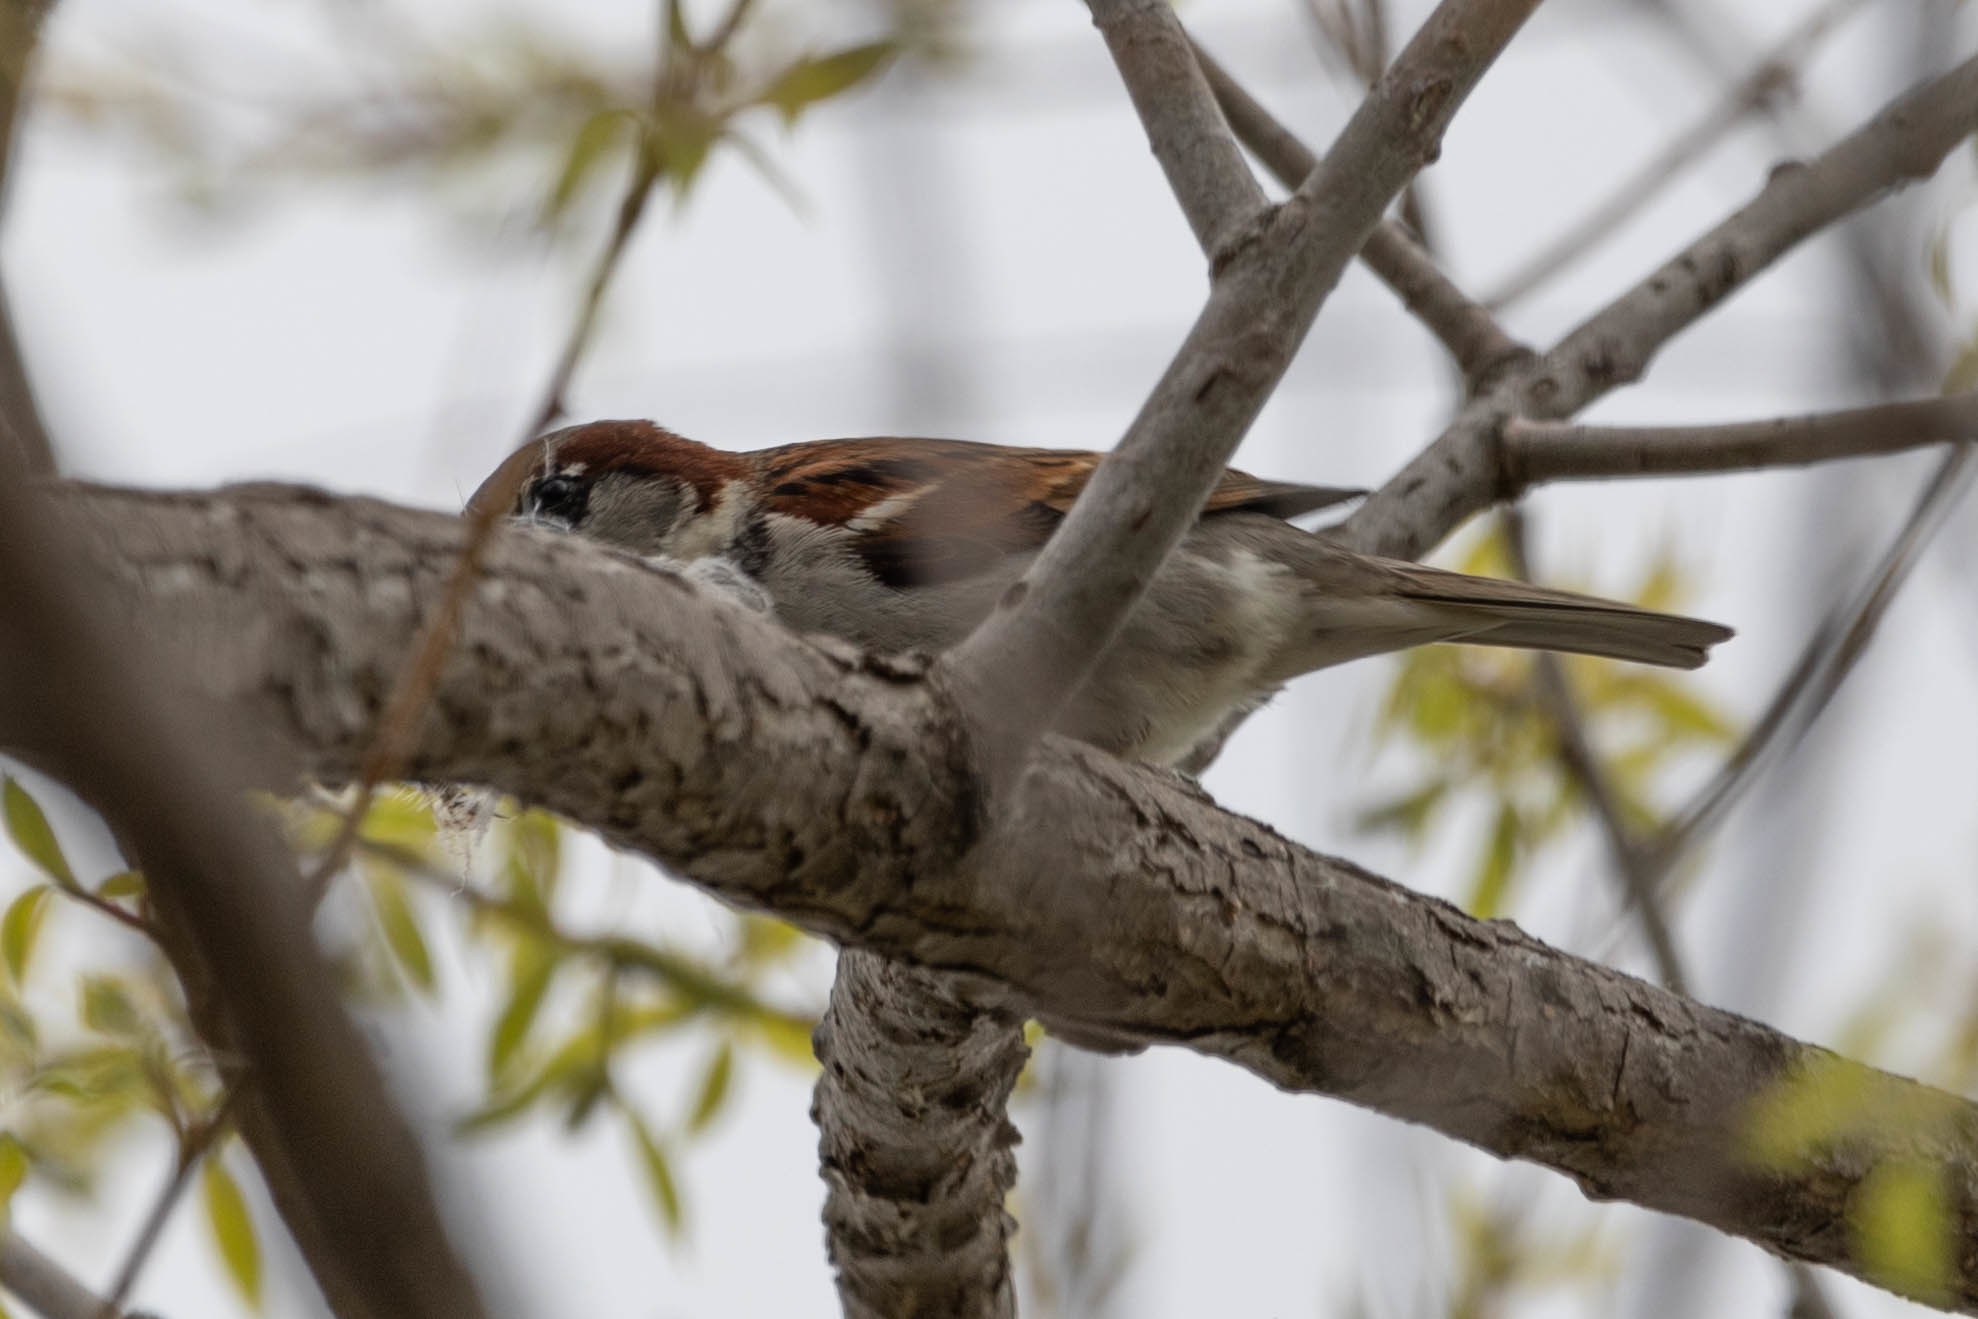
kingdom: Animalia
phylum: Chordata
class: Aves
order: Passeriformes
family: Passeridae
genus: Passer
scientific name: Passer domesticus
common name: House sparrow
